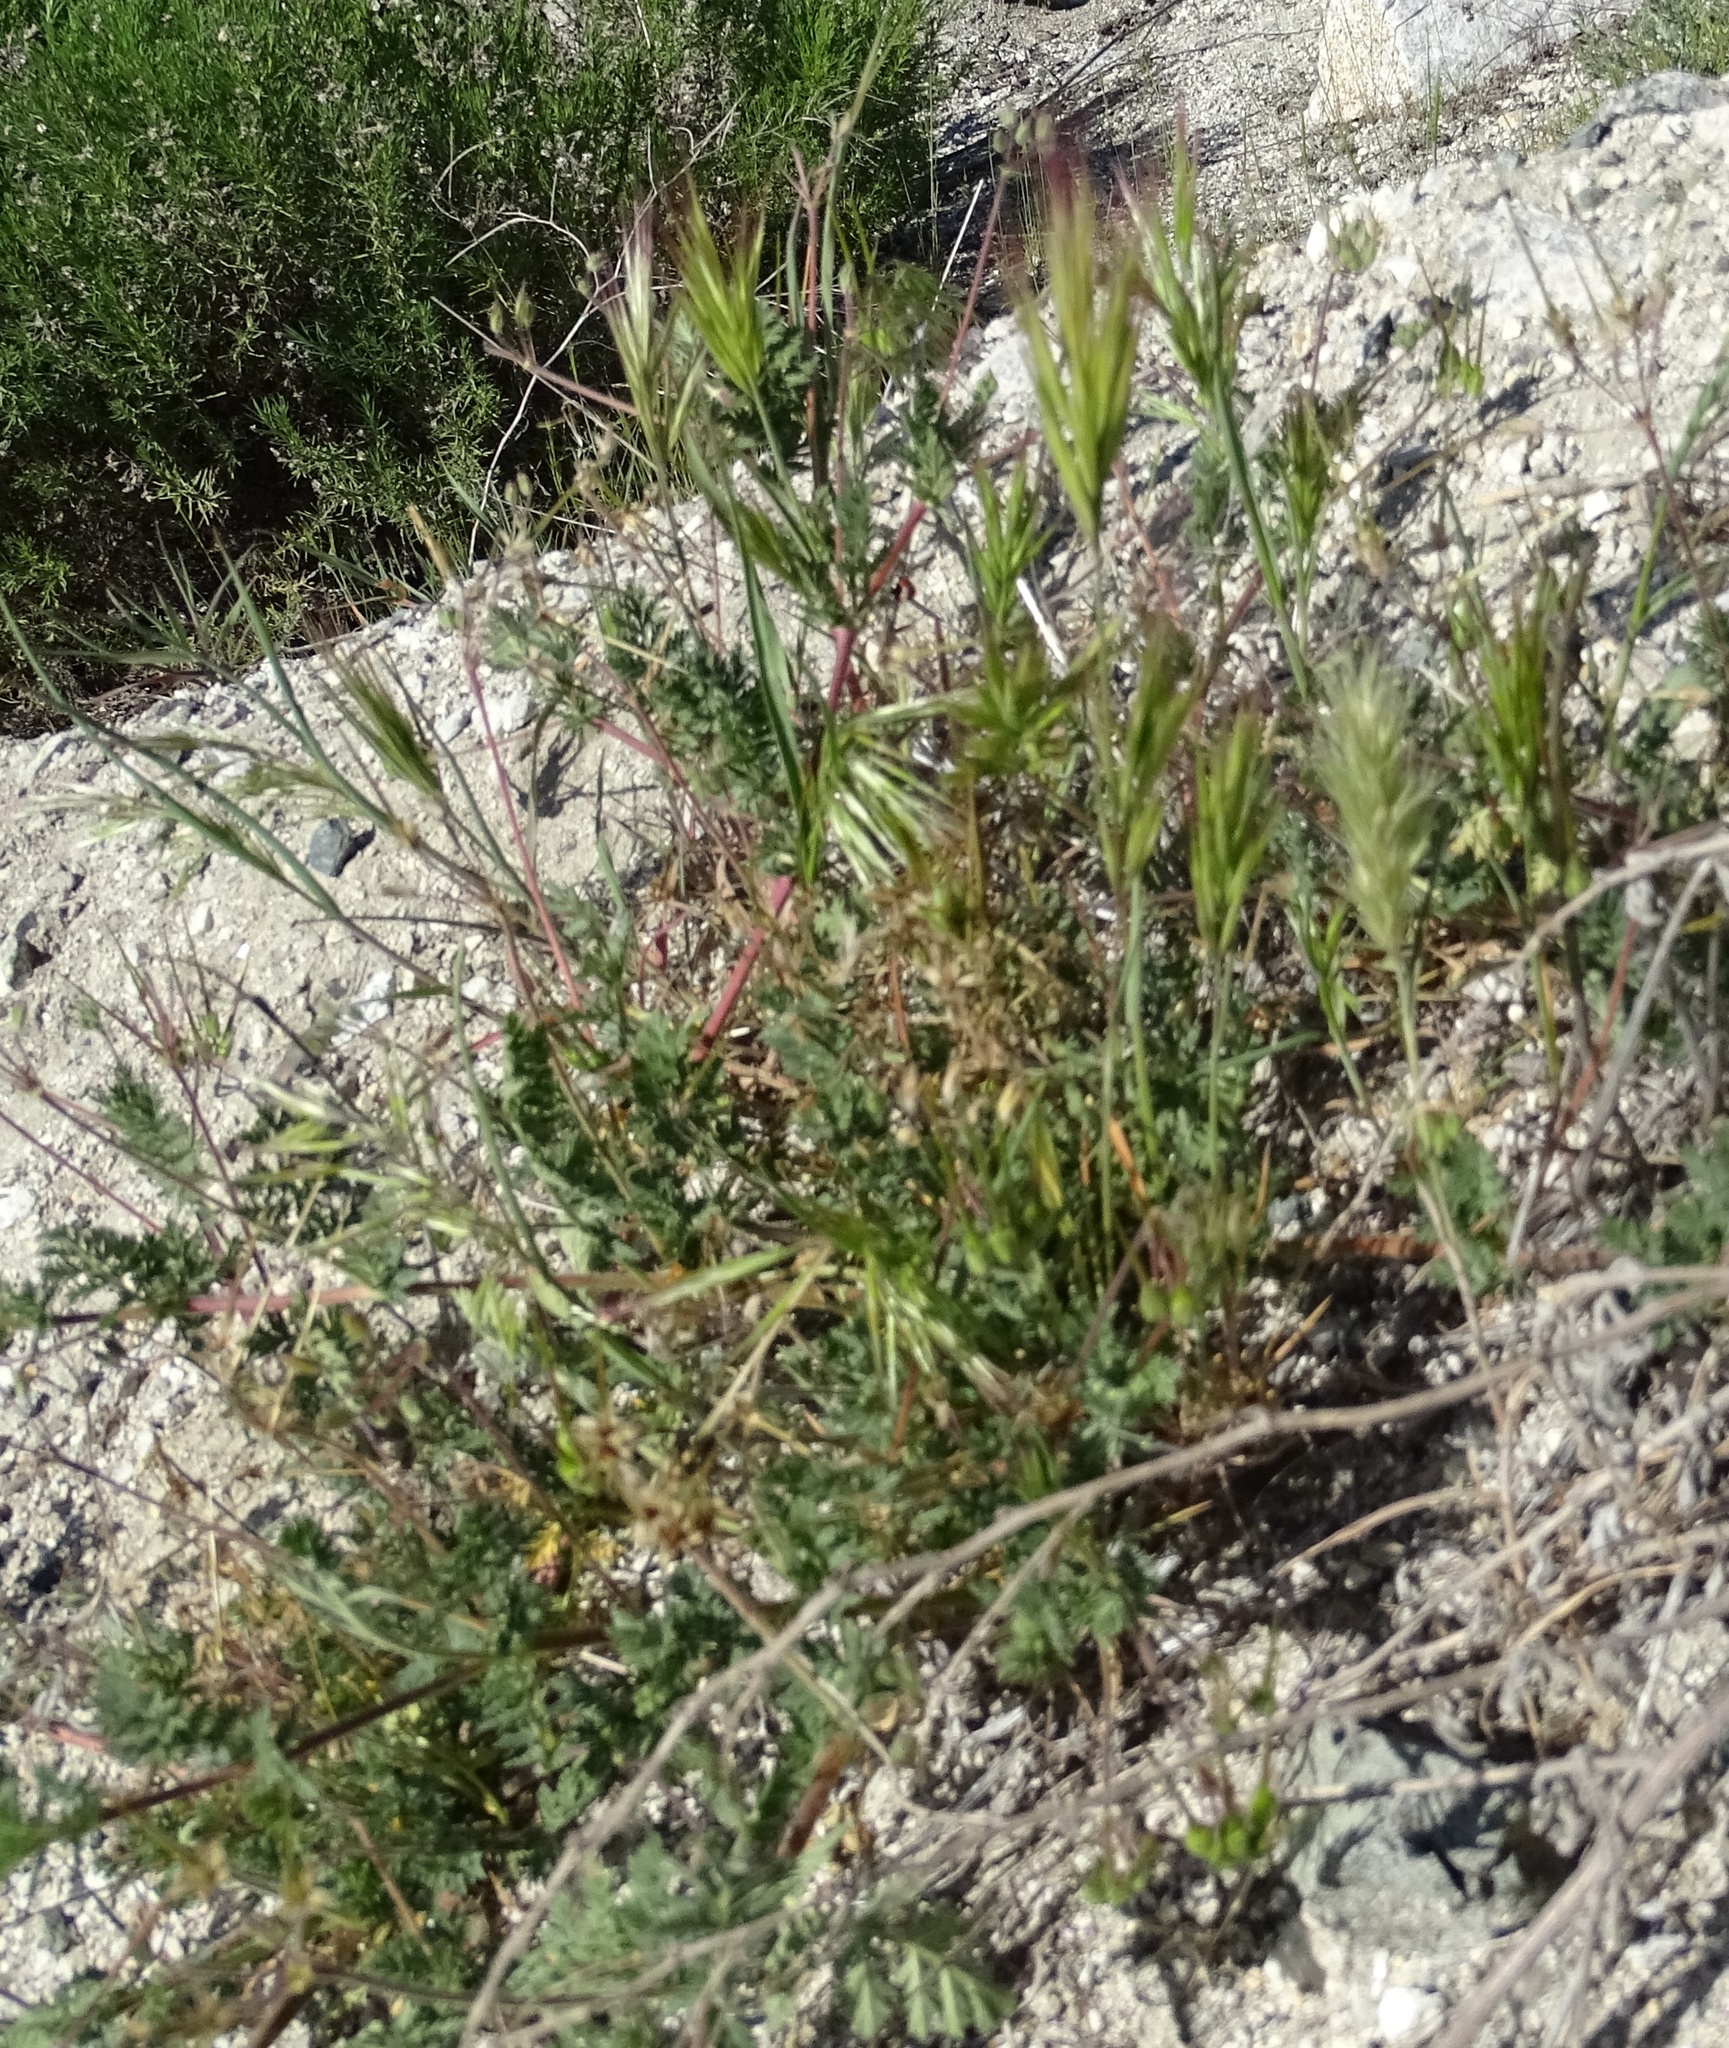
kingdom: Plantae
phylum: Tracheophyta
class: Liliopsida
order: Poales
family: Poaceae
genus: Bromus
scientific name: Bromus madritensis
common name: Compact brome
